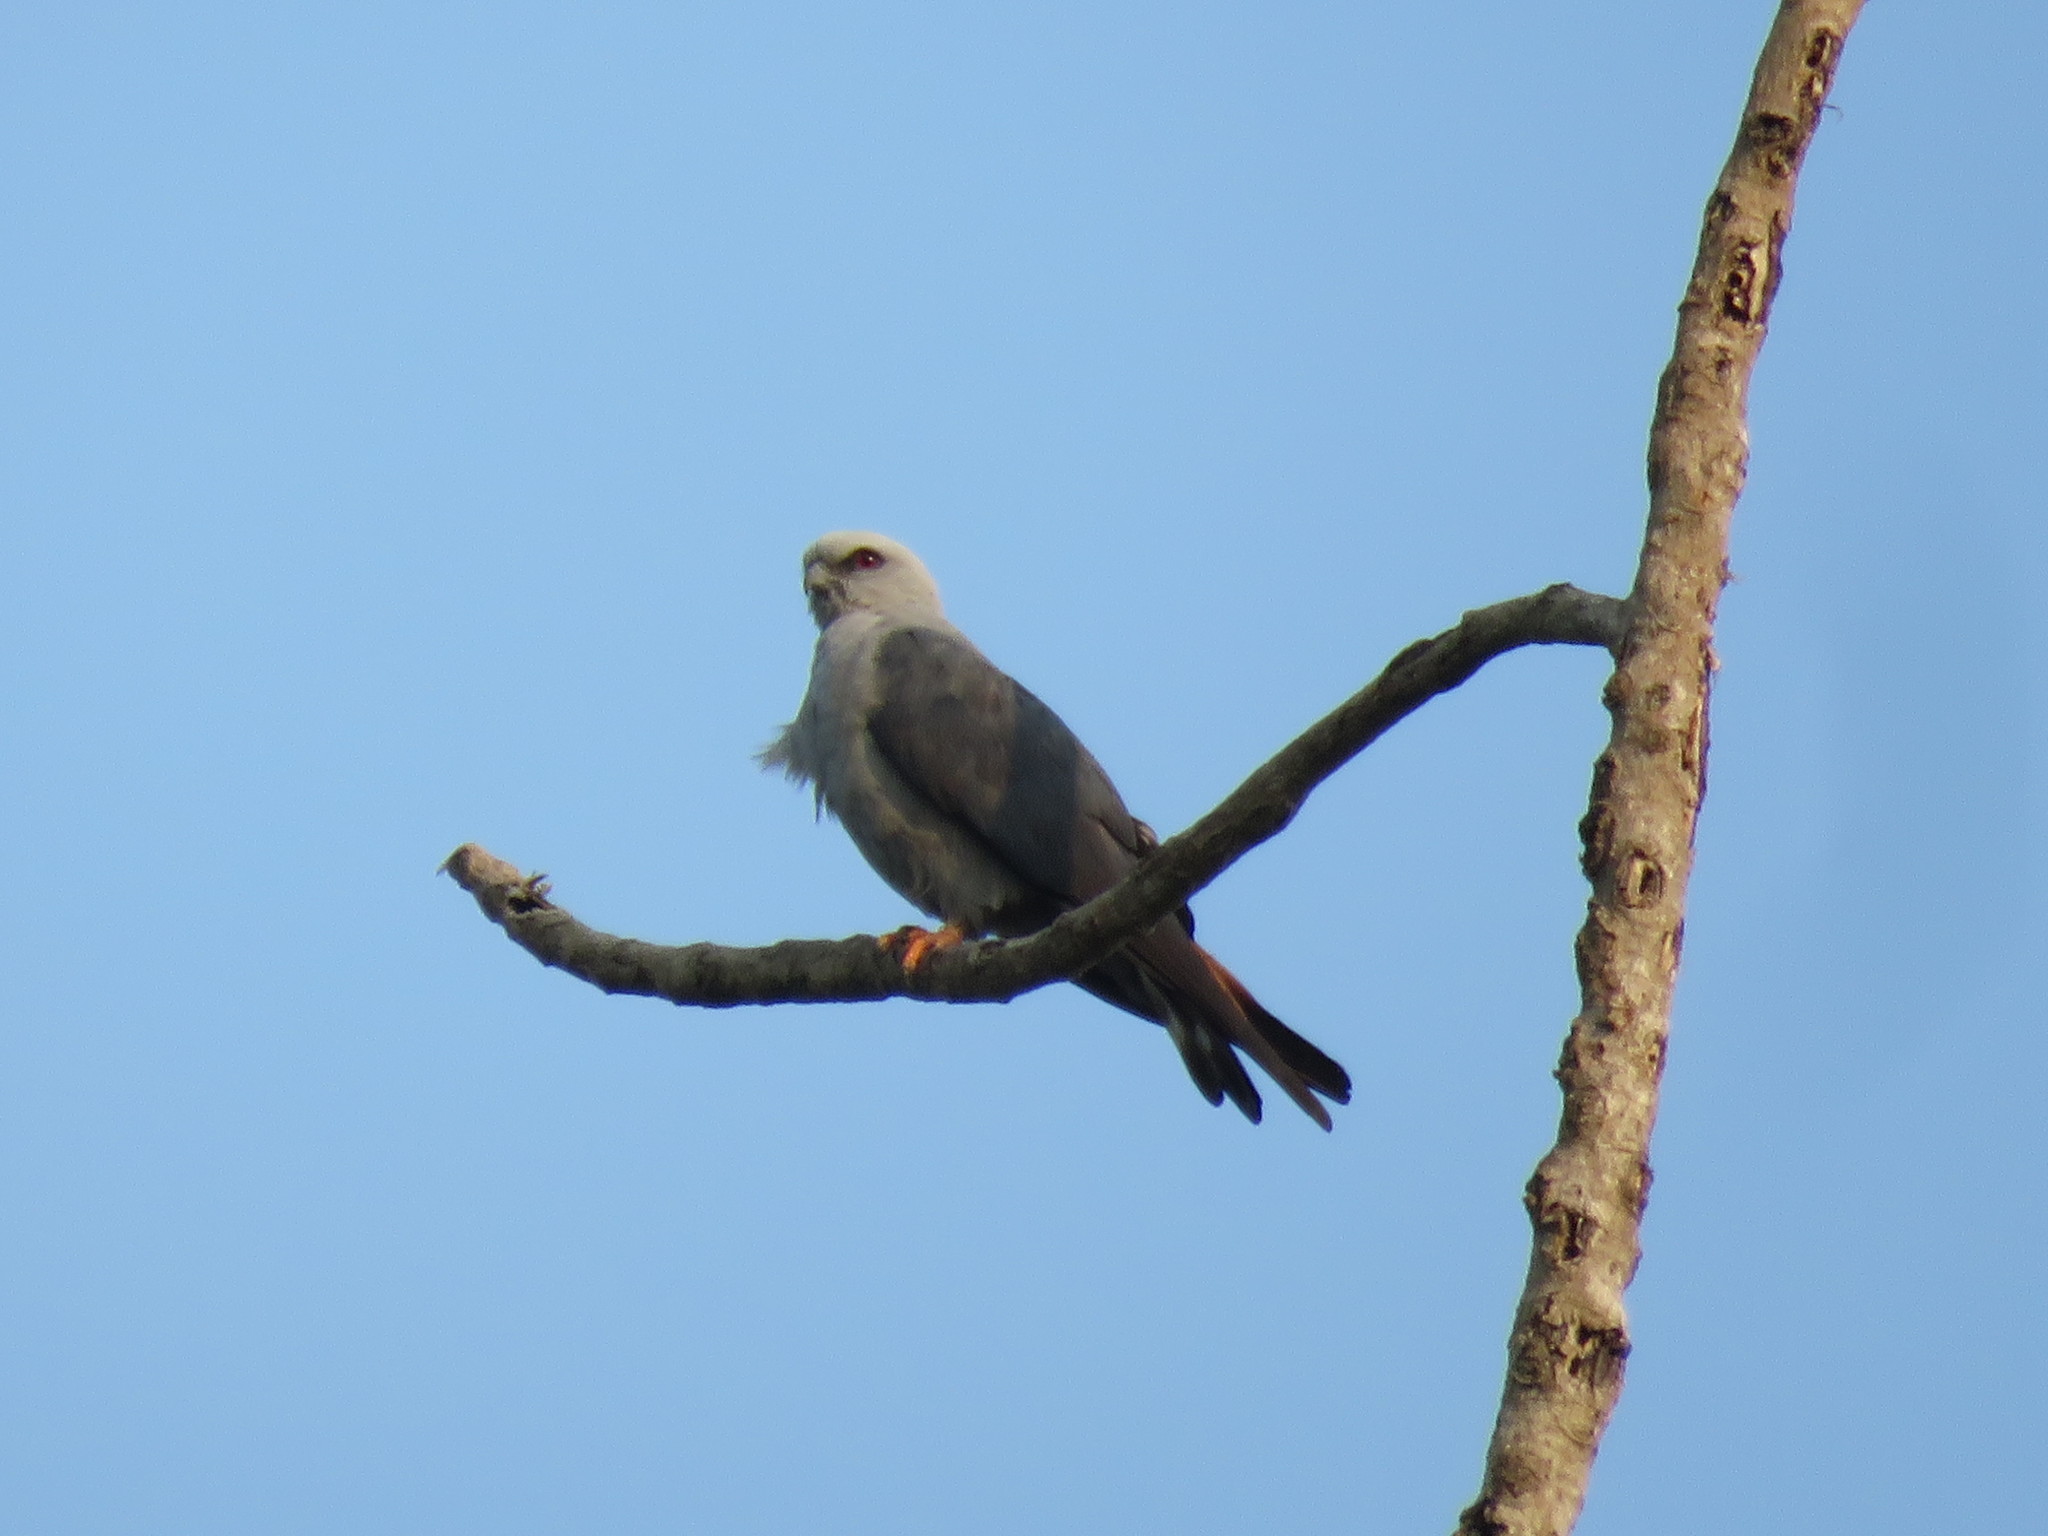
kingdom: Animalia
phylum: Chordata
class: Aves
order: Accipitriformes
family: Accipitridae
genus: Ictinia
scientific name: Ictinia plumbea
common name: Plumbeous kite
